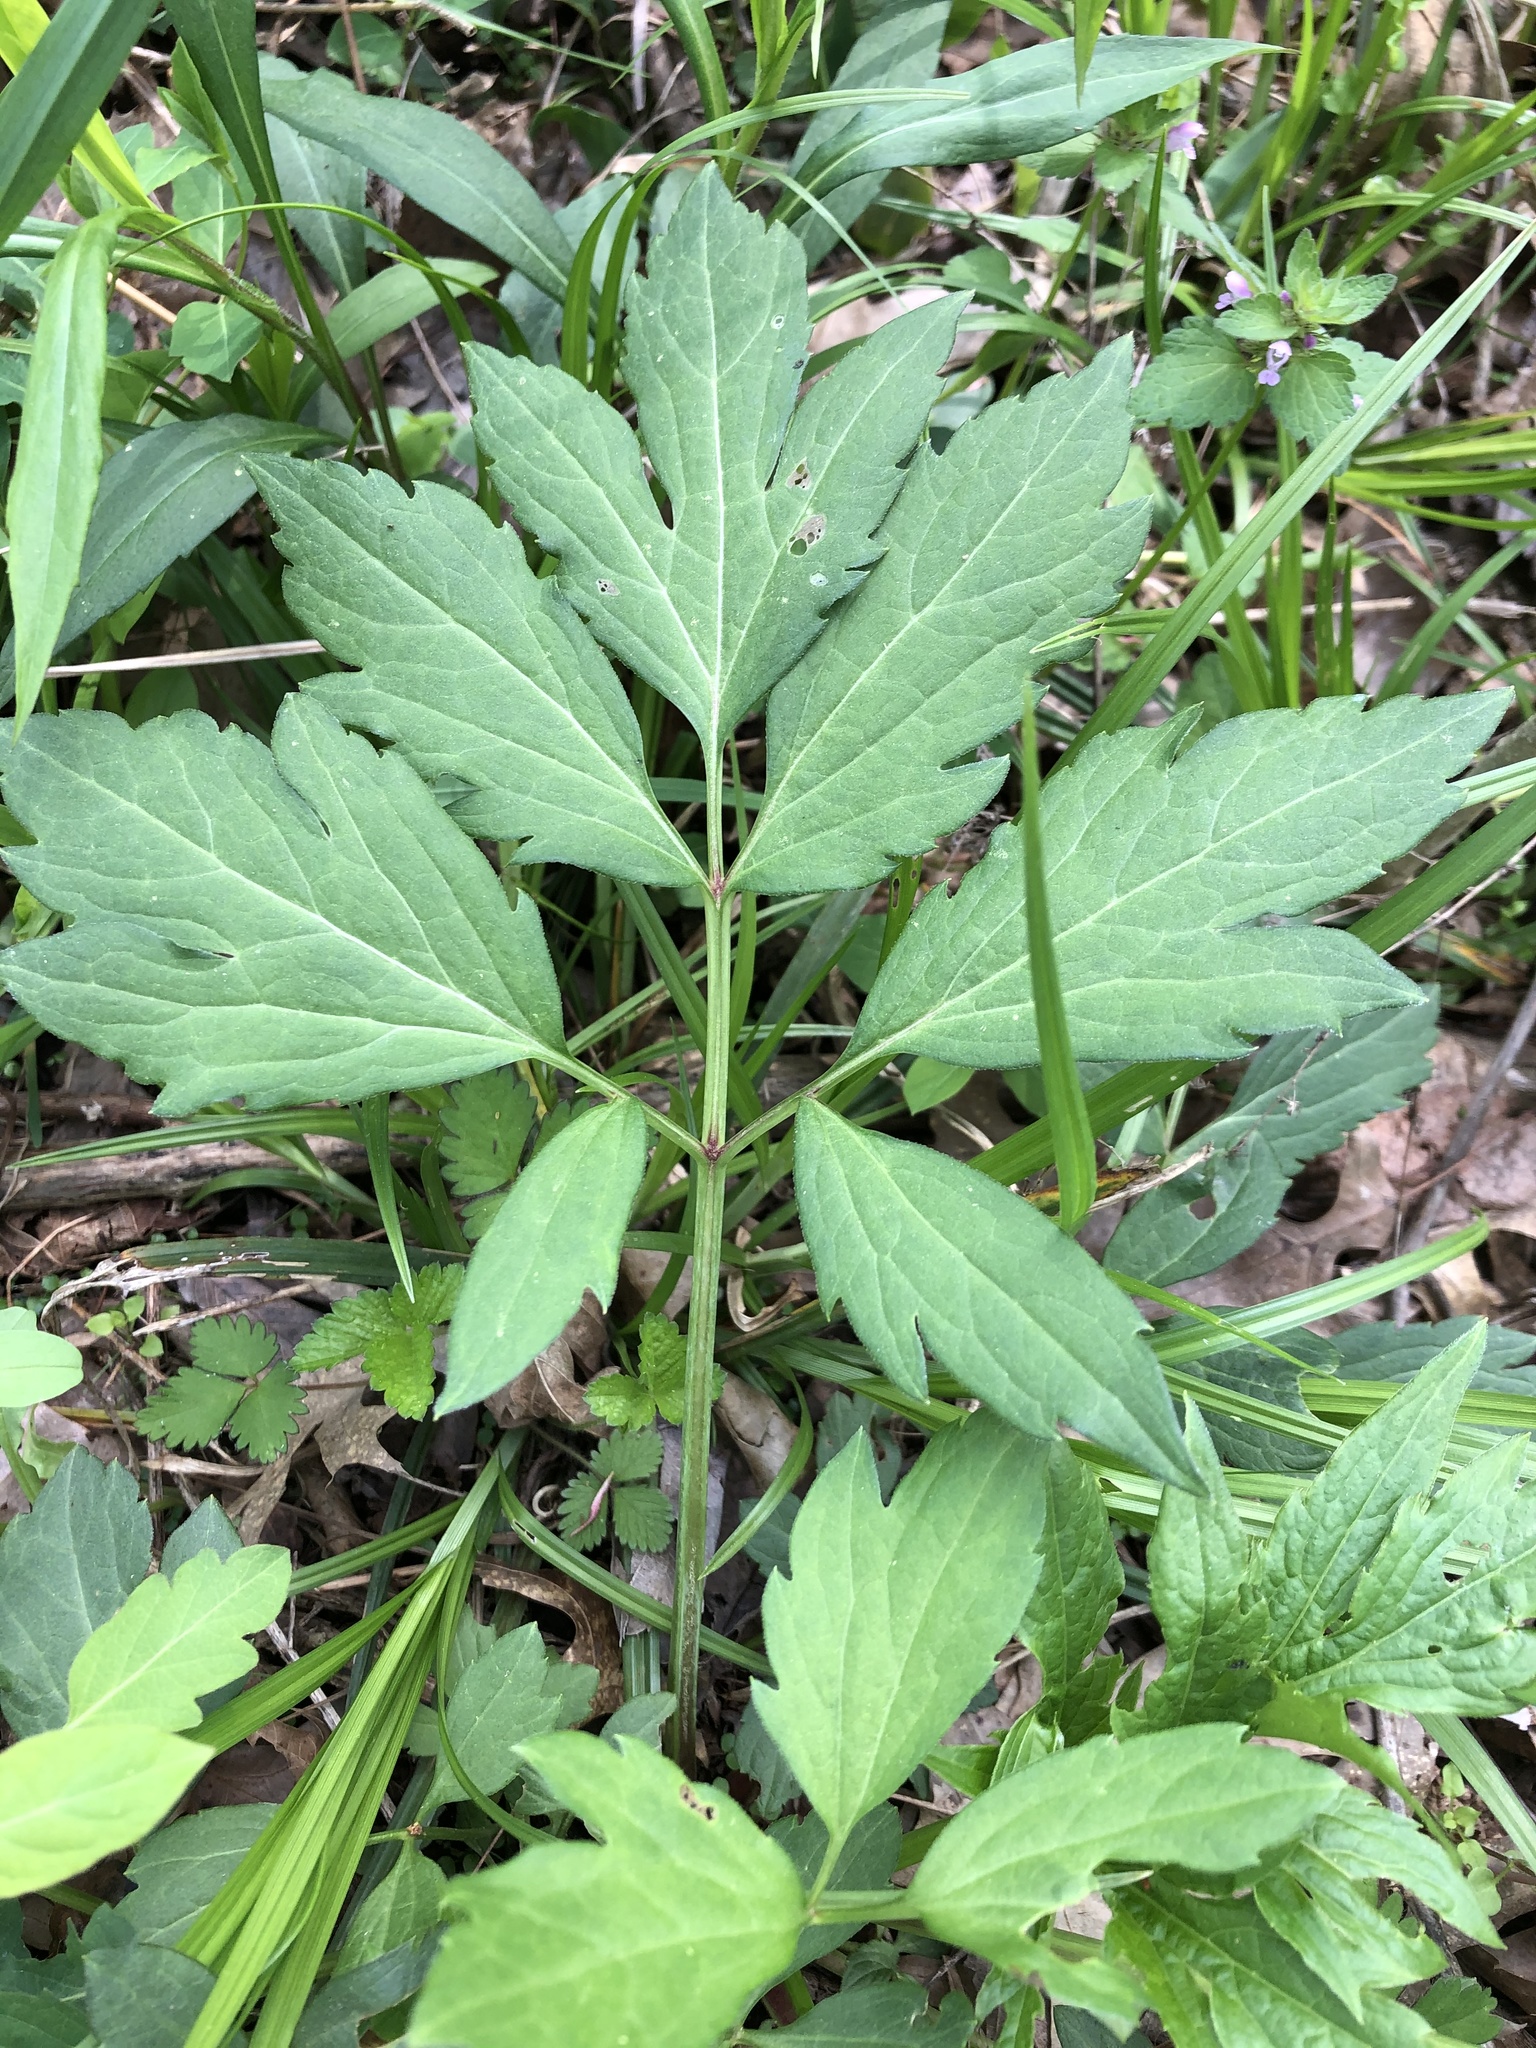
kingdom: Plantae
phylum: Tracheophyta
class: Magnoliopsida
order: Asterales
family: Asteraceae
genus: Rudbeckia
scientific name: Rudbeckia laciniata
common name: Coneflower
